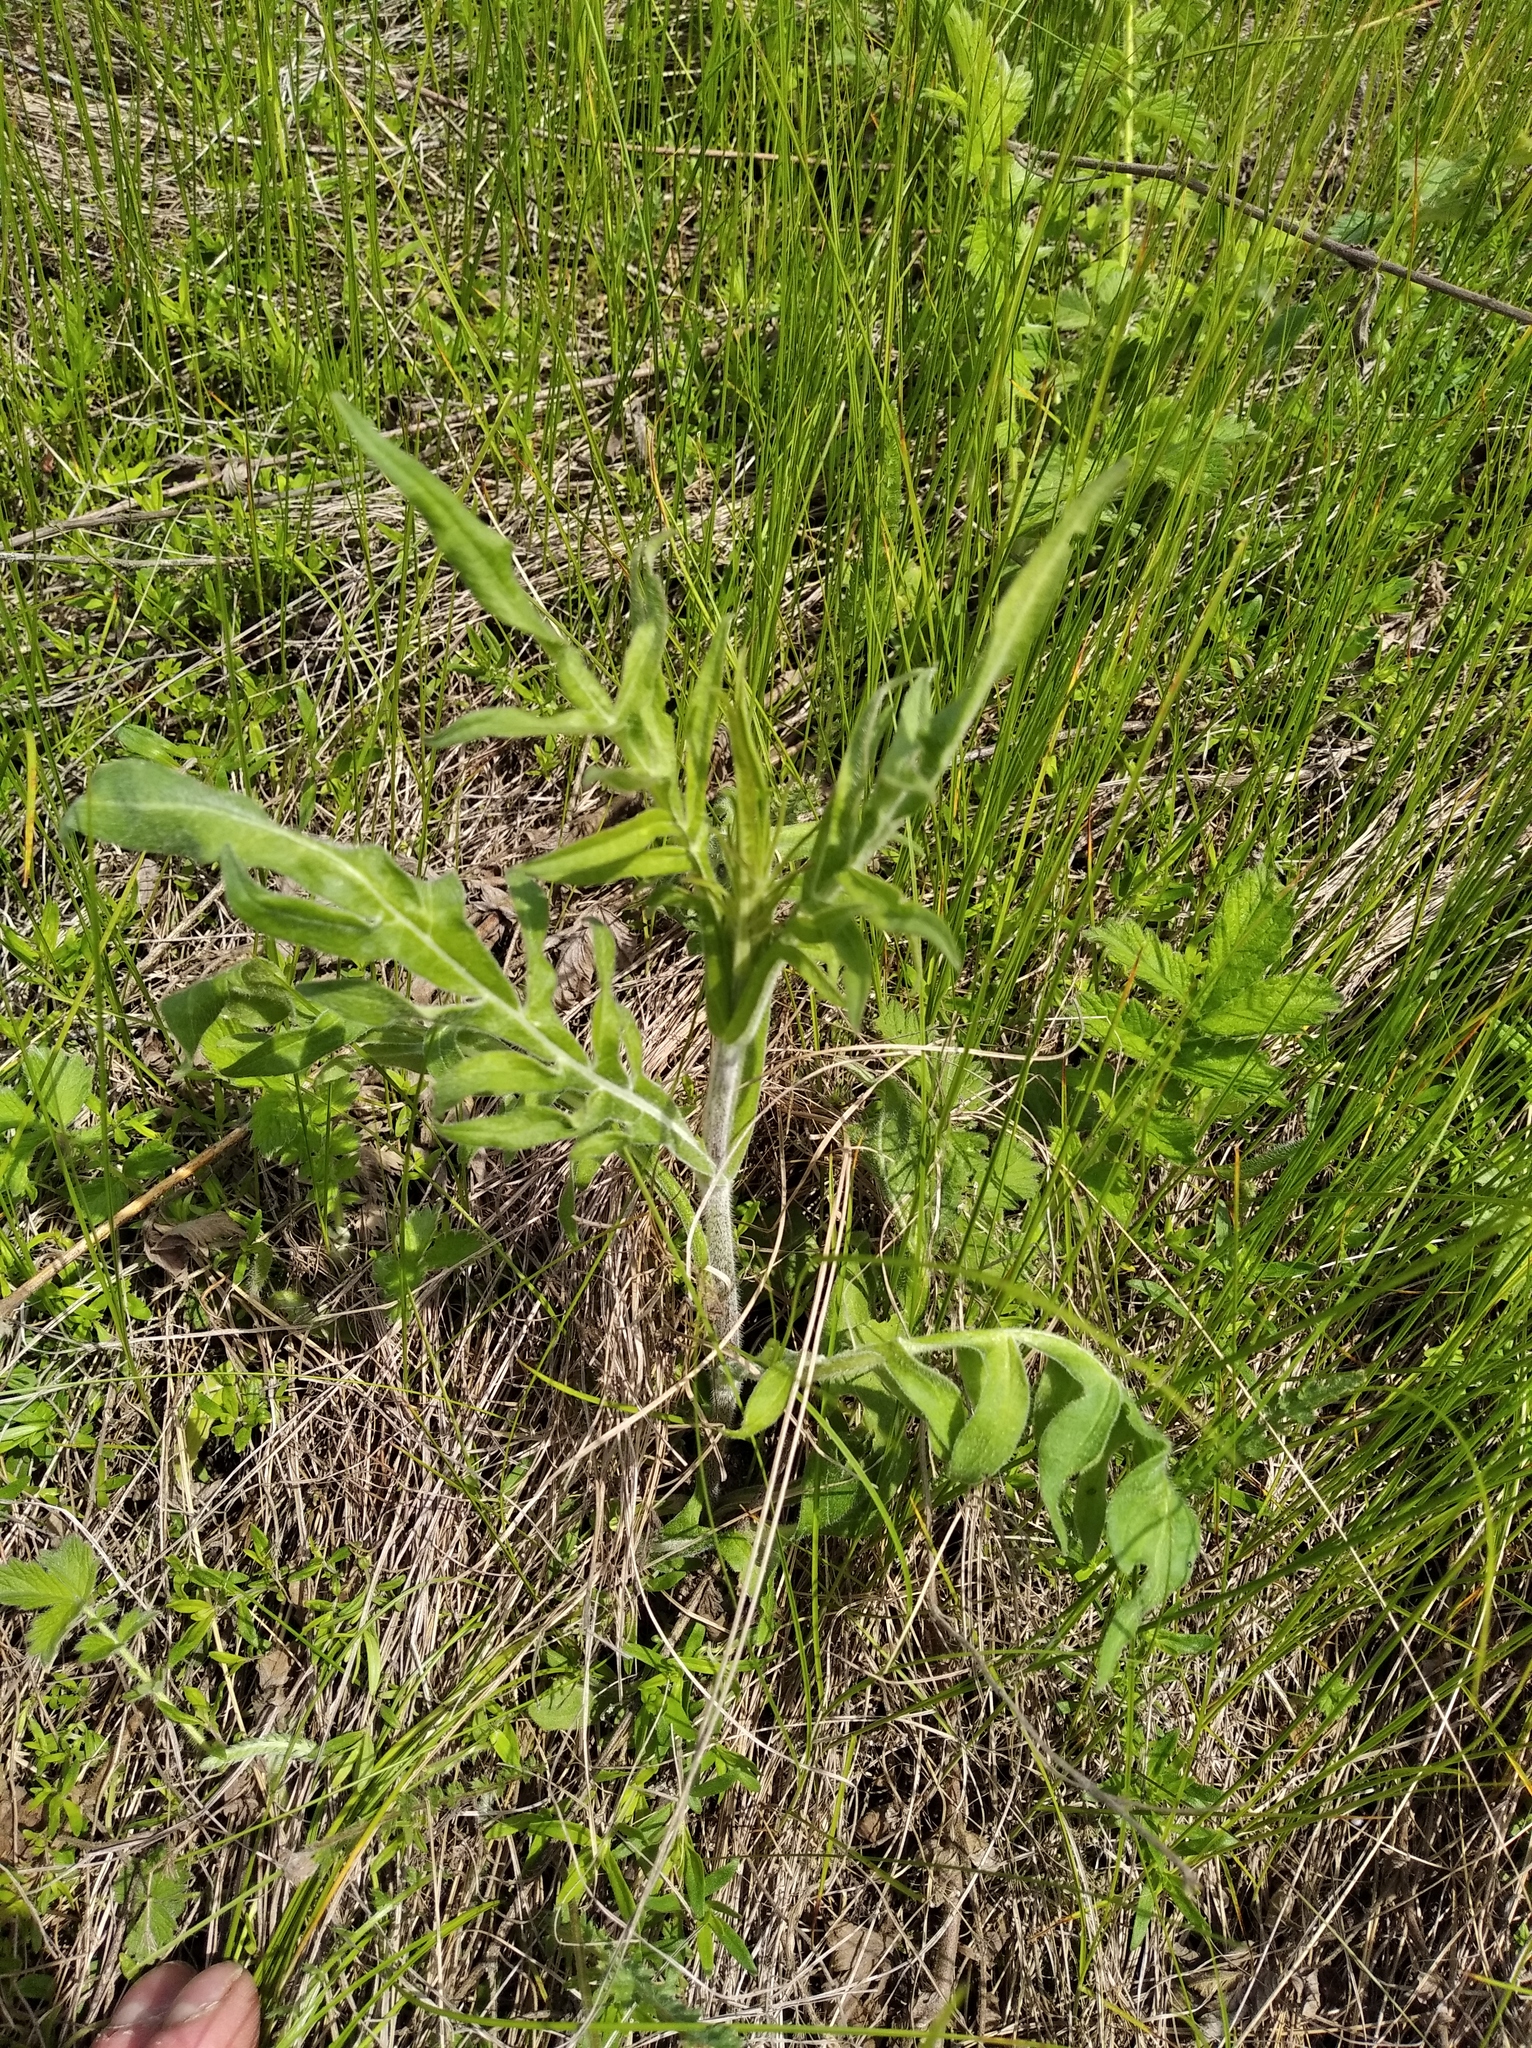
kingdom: Plantae
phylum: Tracheophyta
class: Magnoliopsida
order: Dipsacales
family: Caprifoliaceae
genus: Knautia
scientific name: Knautia arvensis
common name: Field scabiosa
